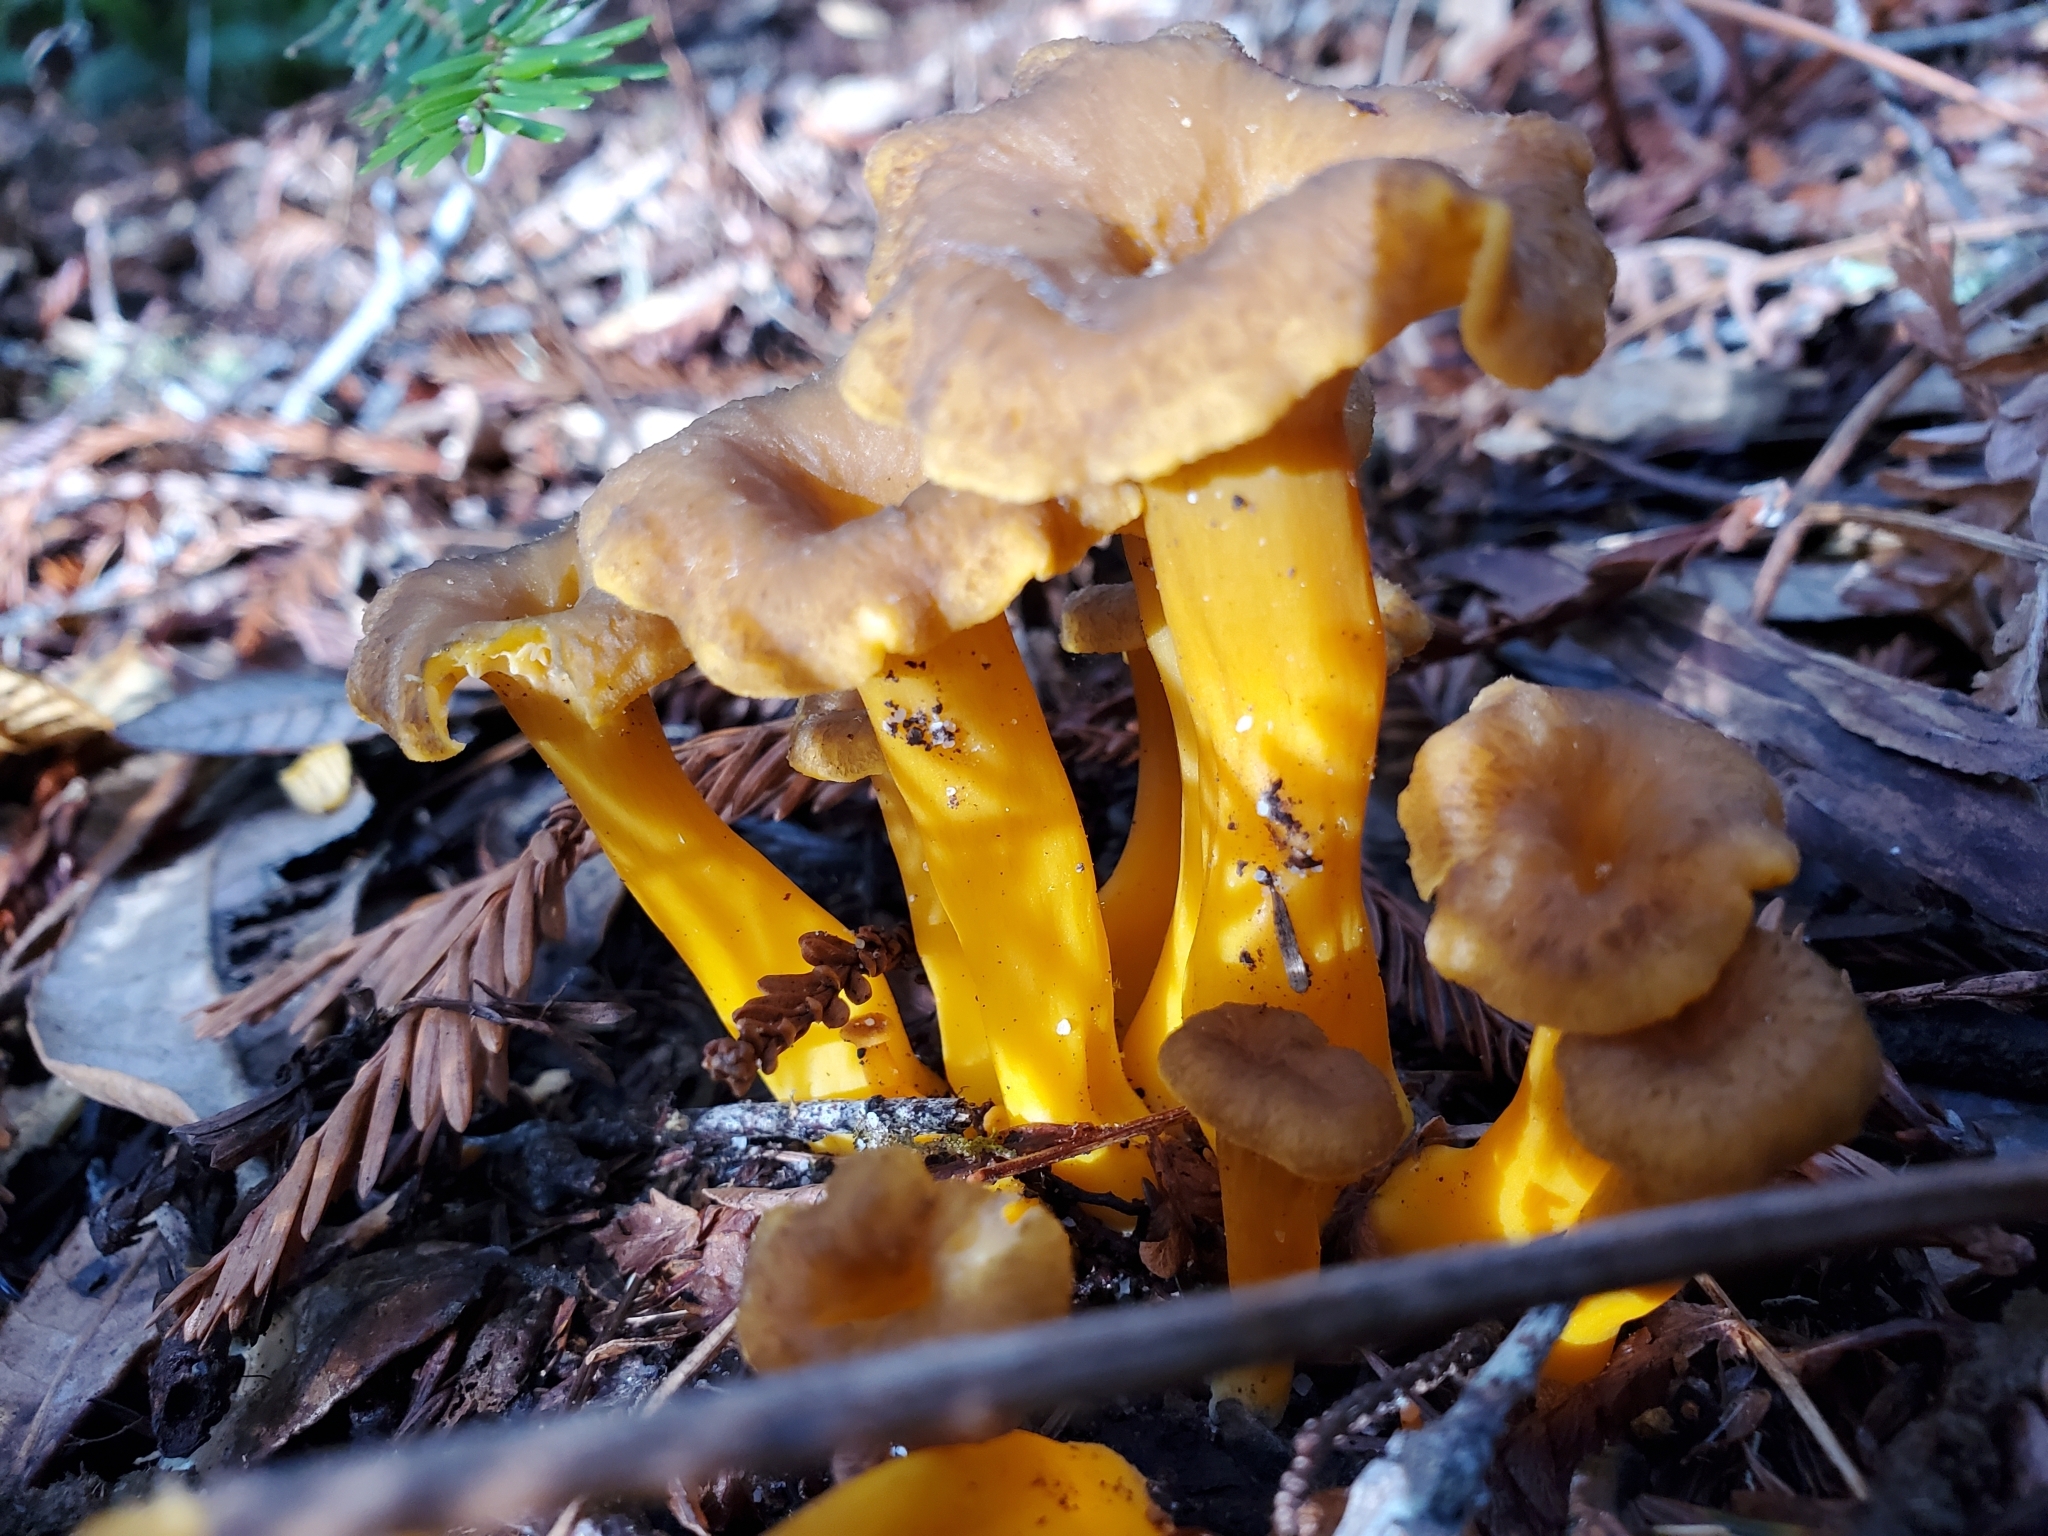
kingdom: Fungi
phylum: Basidiomycota
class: Agaricomycetes
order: Cantharellales
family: Hydnaceae
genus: Craterellus
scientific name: Craterellus tubaeformis
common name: Yellowfoot
